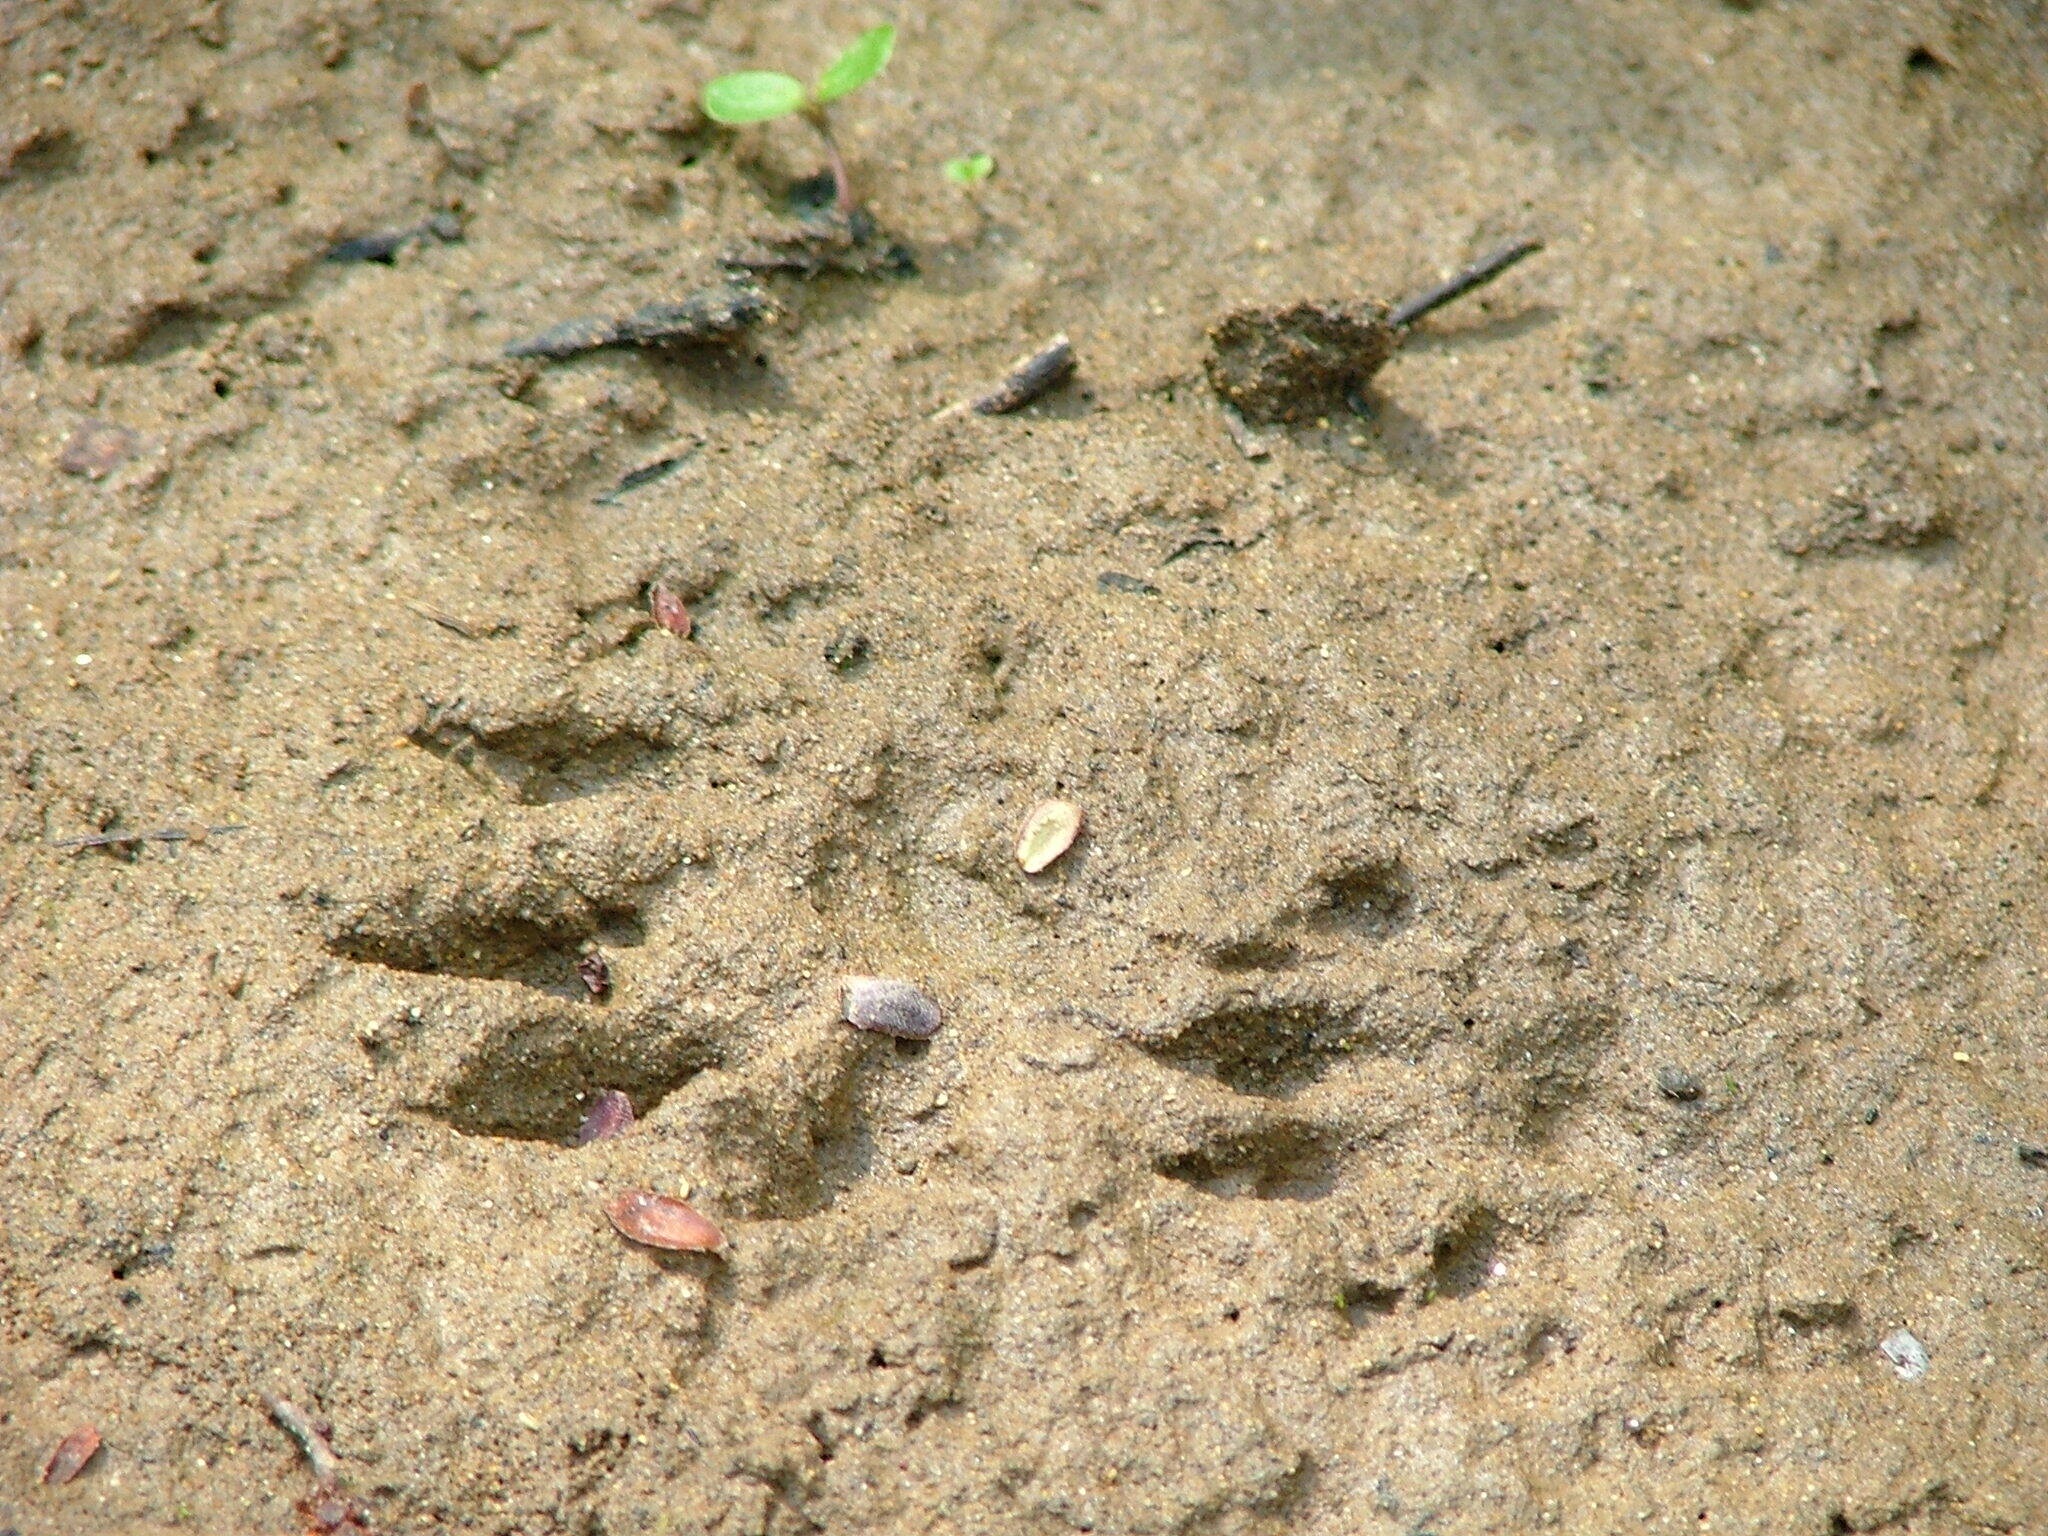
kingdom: Animalia
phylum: Chordata
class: Mammalia
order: Carnivora
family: Mustelidae
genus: Mustela
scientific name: Mustela
